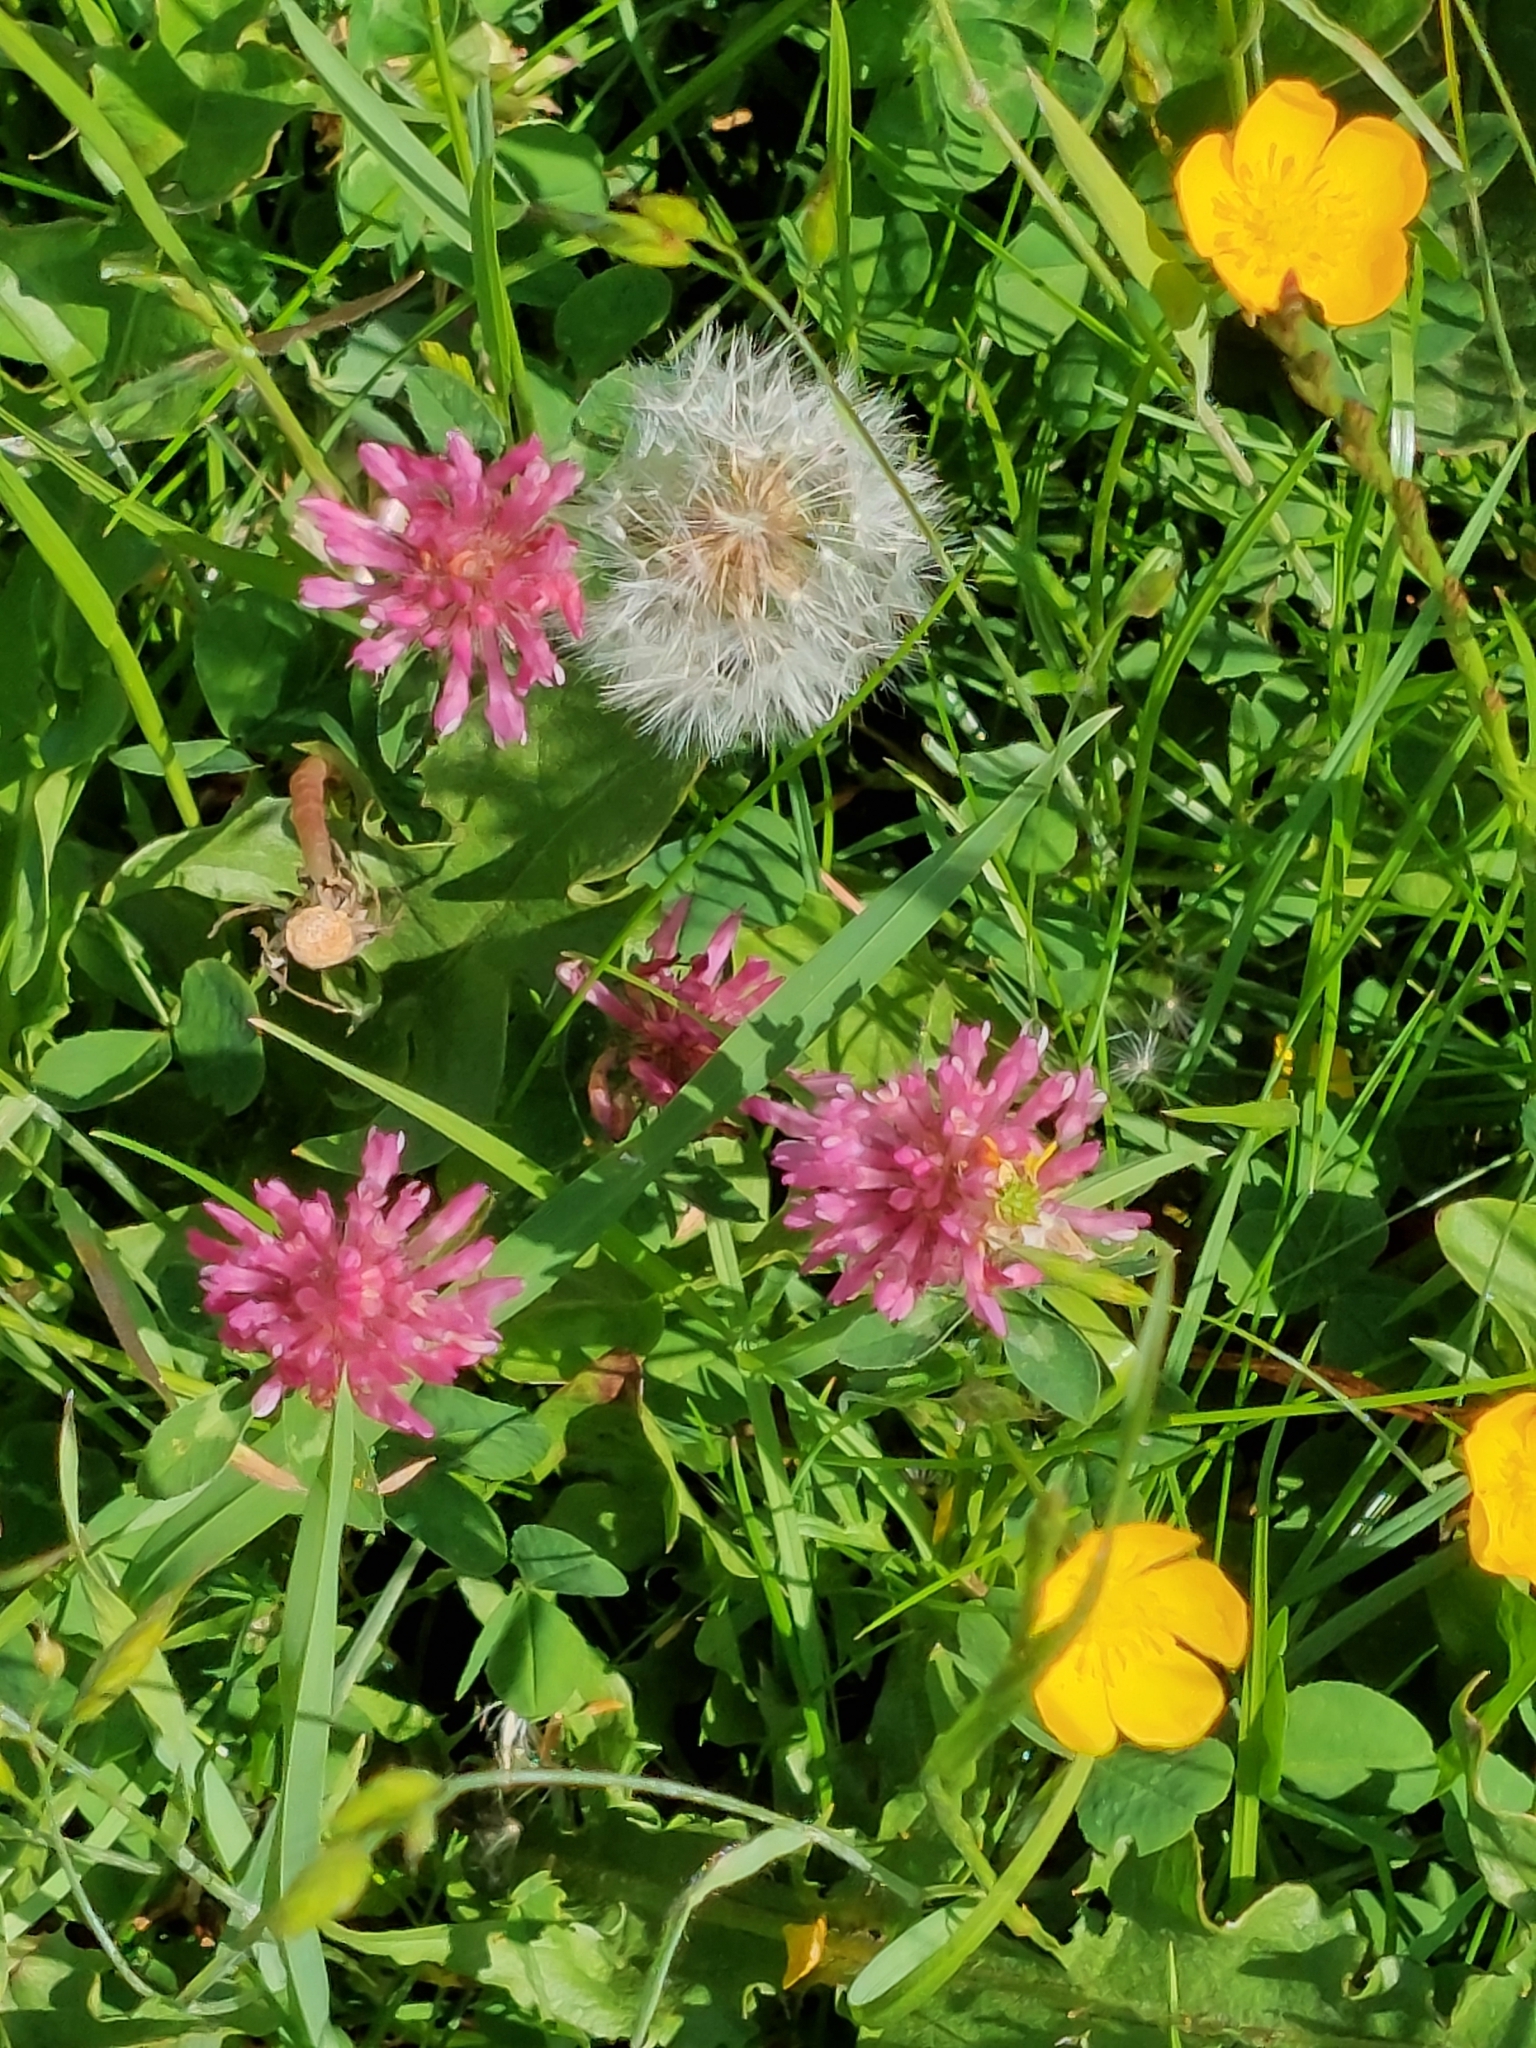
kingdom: Plantae
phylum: Tracheophyta
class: Magnoliopsida
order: Fabales
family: Fabaceae
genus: Trifolium
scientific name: Trifolium pratense
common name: Red clover
